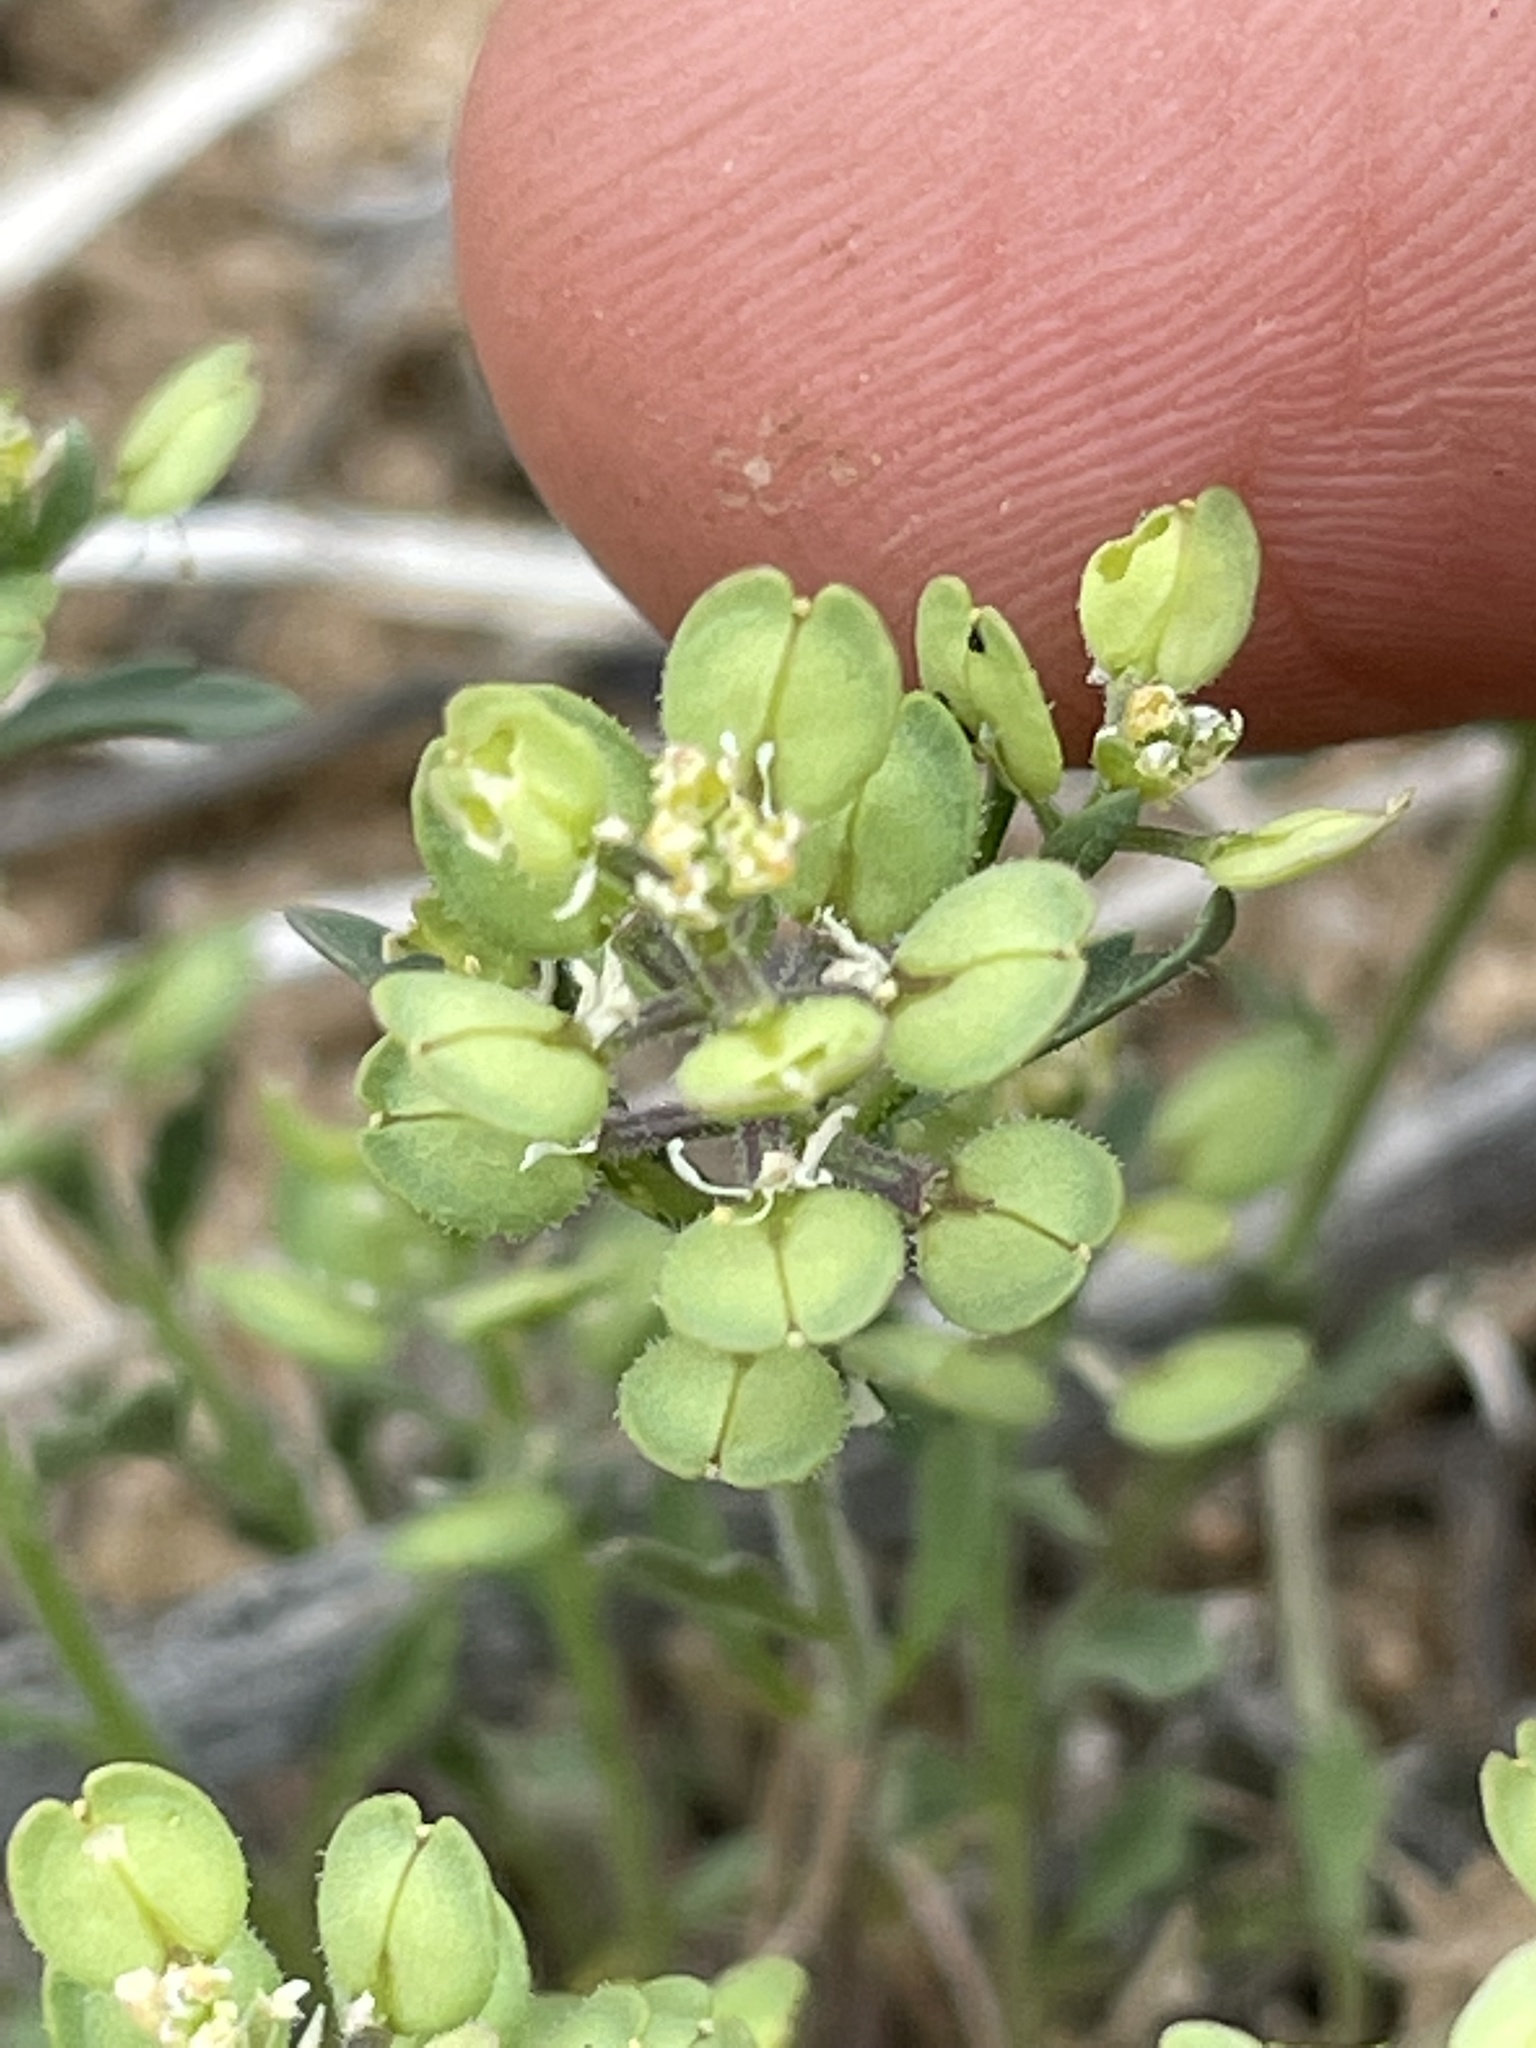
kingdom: Plantae
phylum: Tracheophyta
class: Magnoliopsida
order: Brassicales
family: Brassicaceae
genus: Lepidium
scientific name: Lepidium lasiocarpum
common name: Hairy-pod pepperwort
